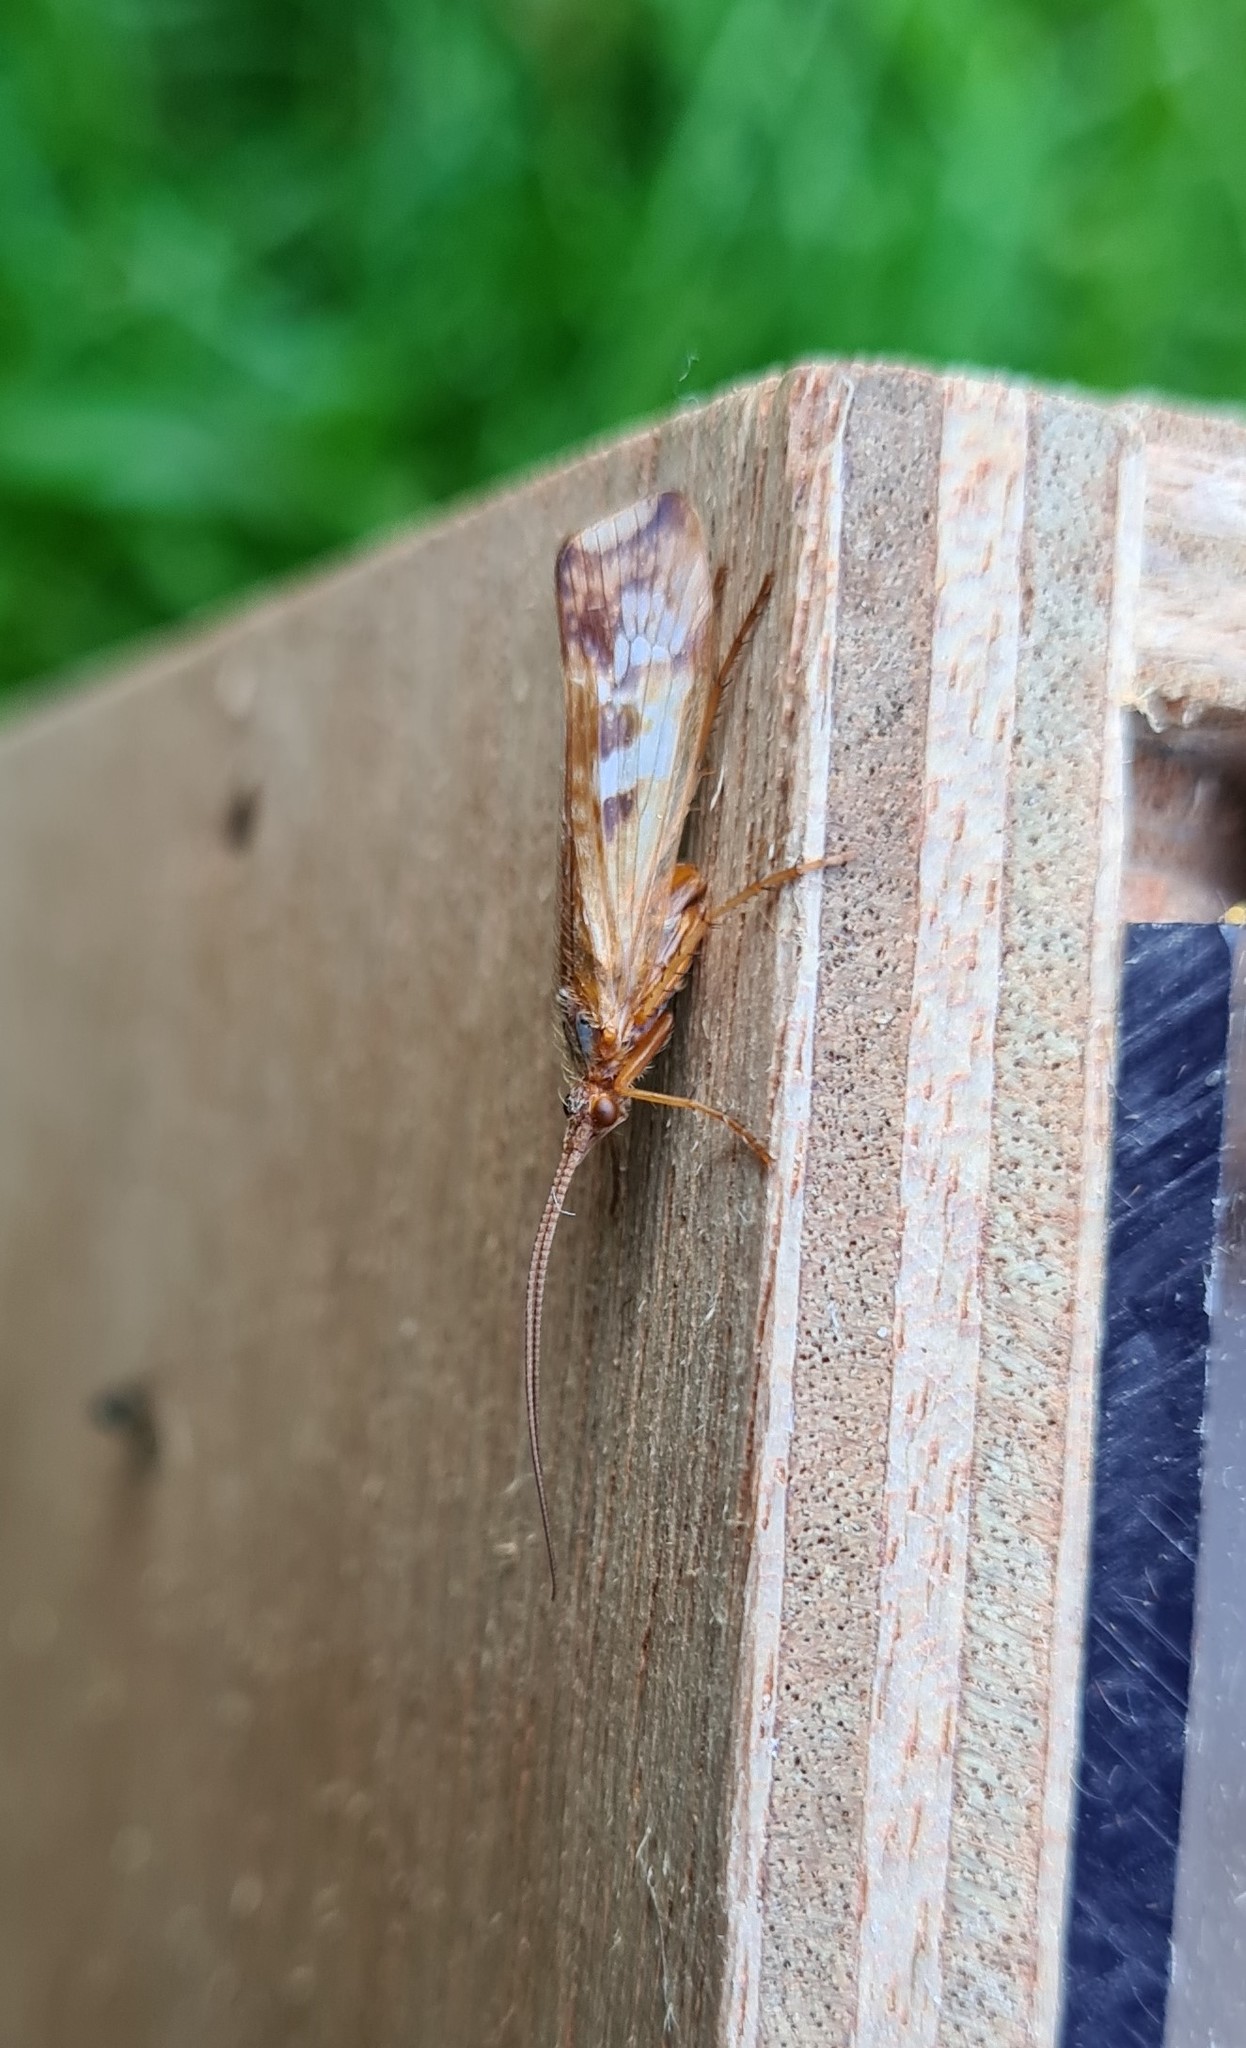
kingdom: Animalia
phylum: Arthropoda
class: Insecta
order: Trichoptera
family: Limnephilidae
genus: Limnephilus
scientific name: Limnephilus lunatus
